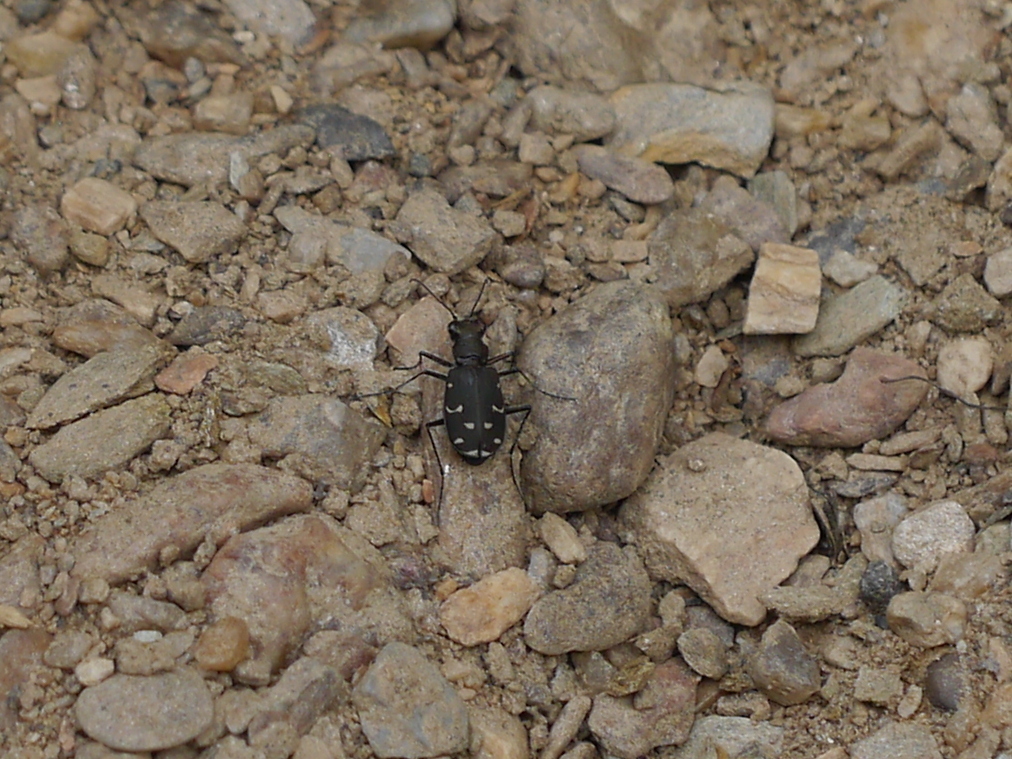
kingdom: Animalia
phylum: Arthropoda
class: Insecta
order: Coleoptera
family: Carabidae
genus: Cicindela
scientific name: Cicindela duodecimguttata
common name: Twelve-spotted tiger beetle
